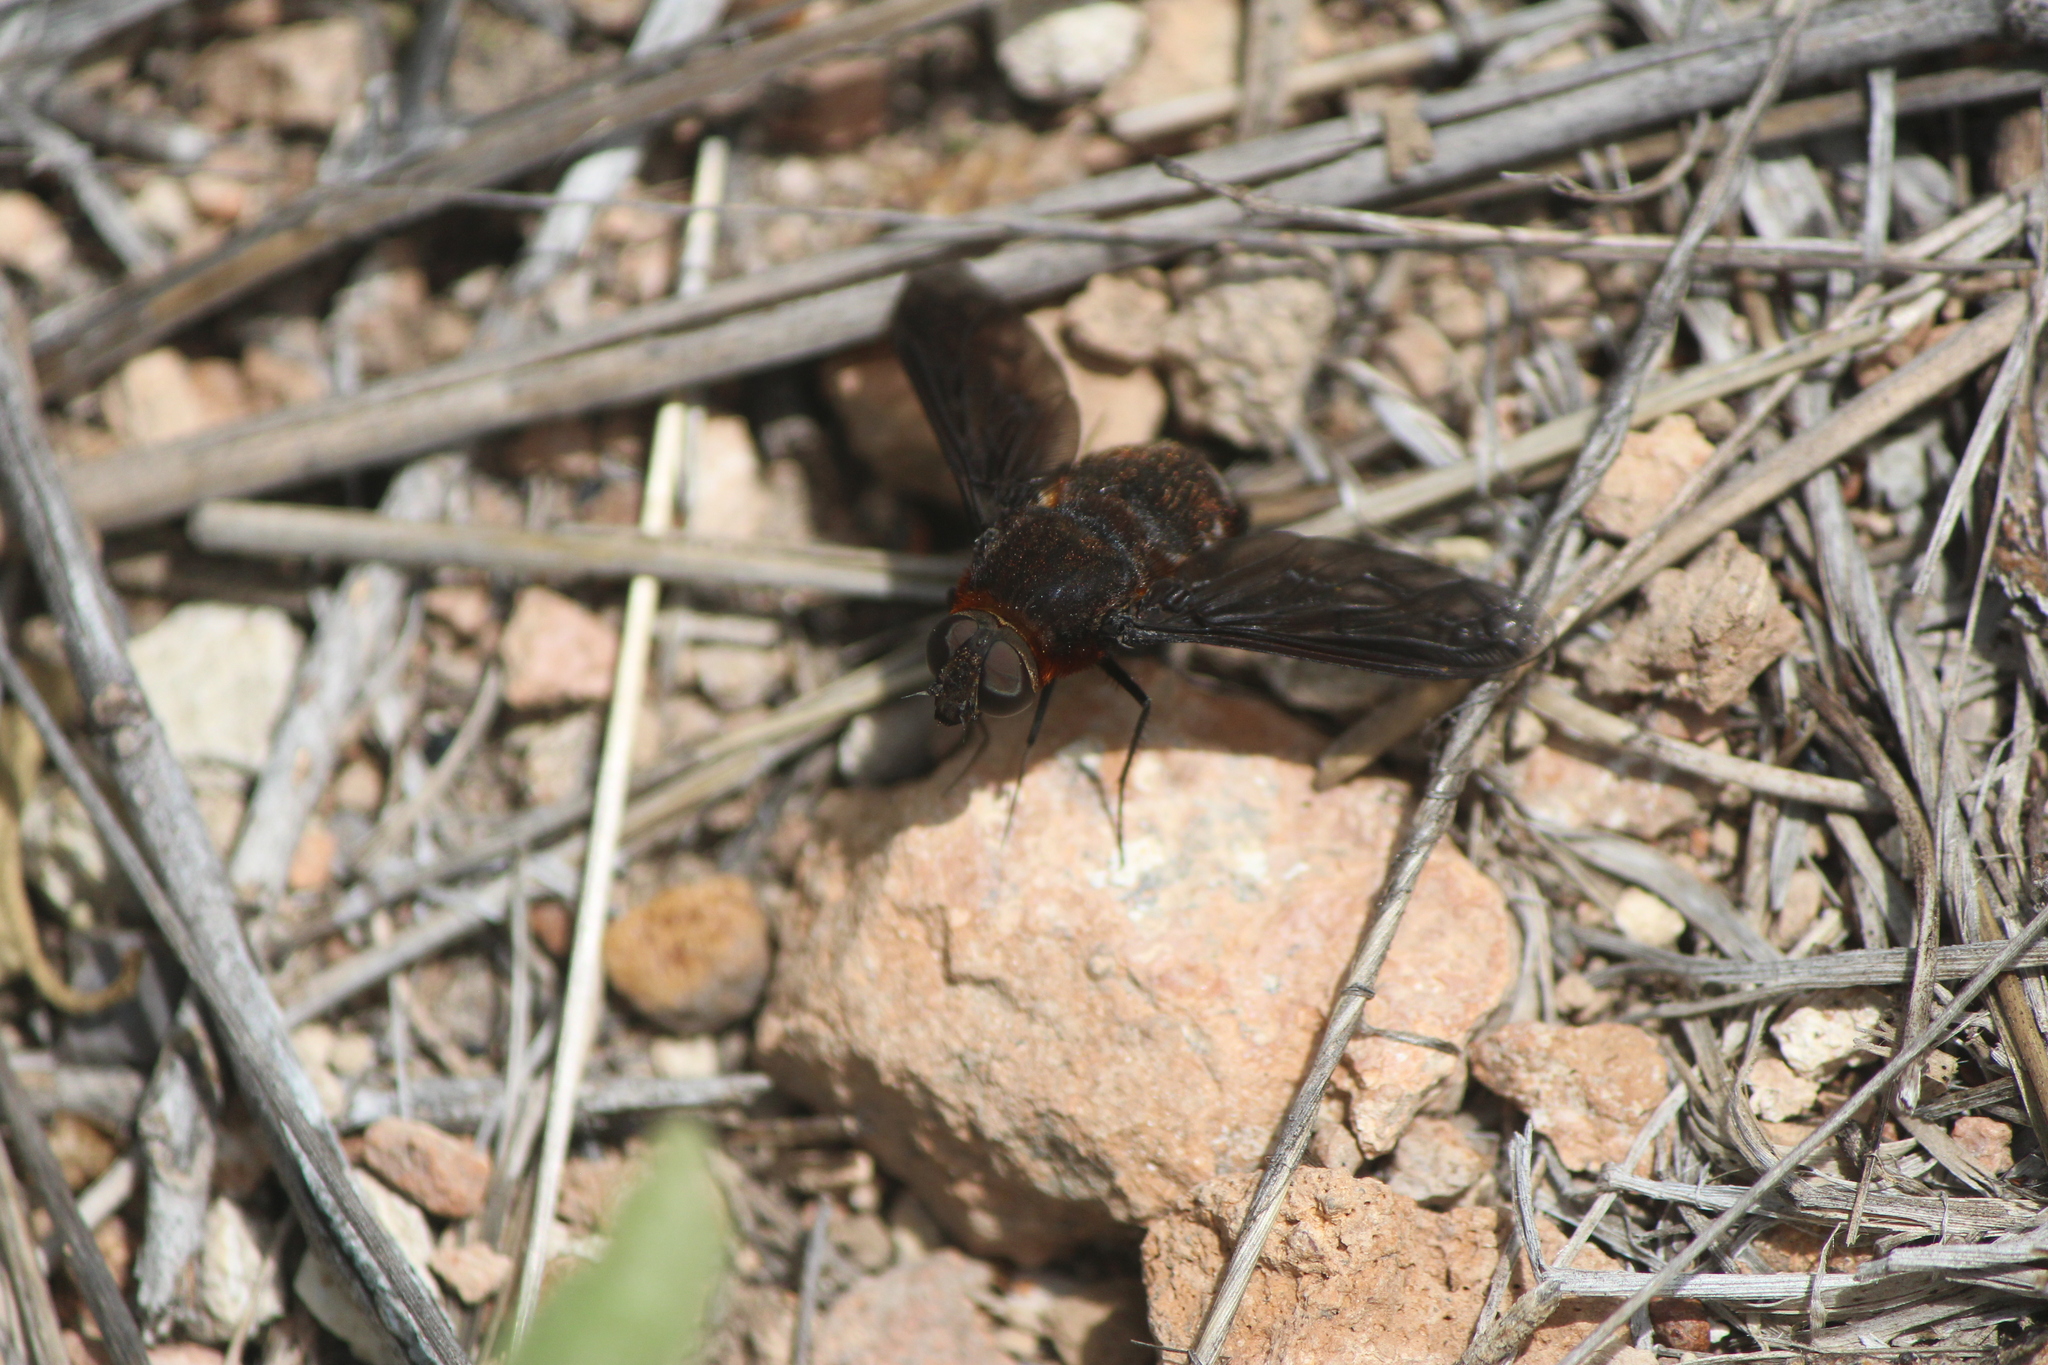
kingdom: Animalia
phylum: Arthropoda
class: Insecta
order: Diptera
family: Bombyliidae
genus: Nyia
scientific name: Nyia orcus
